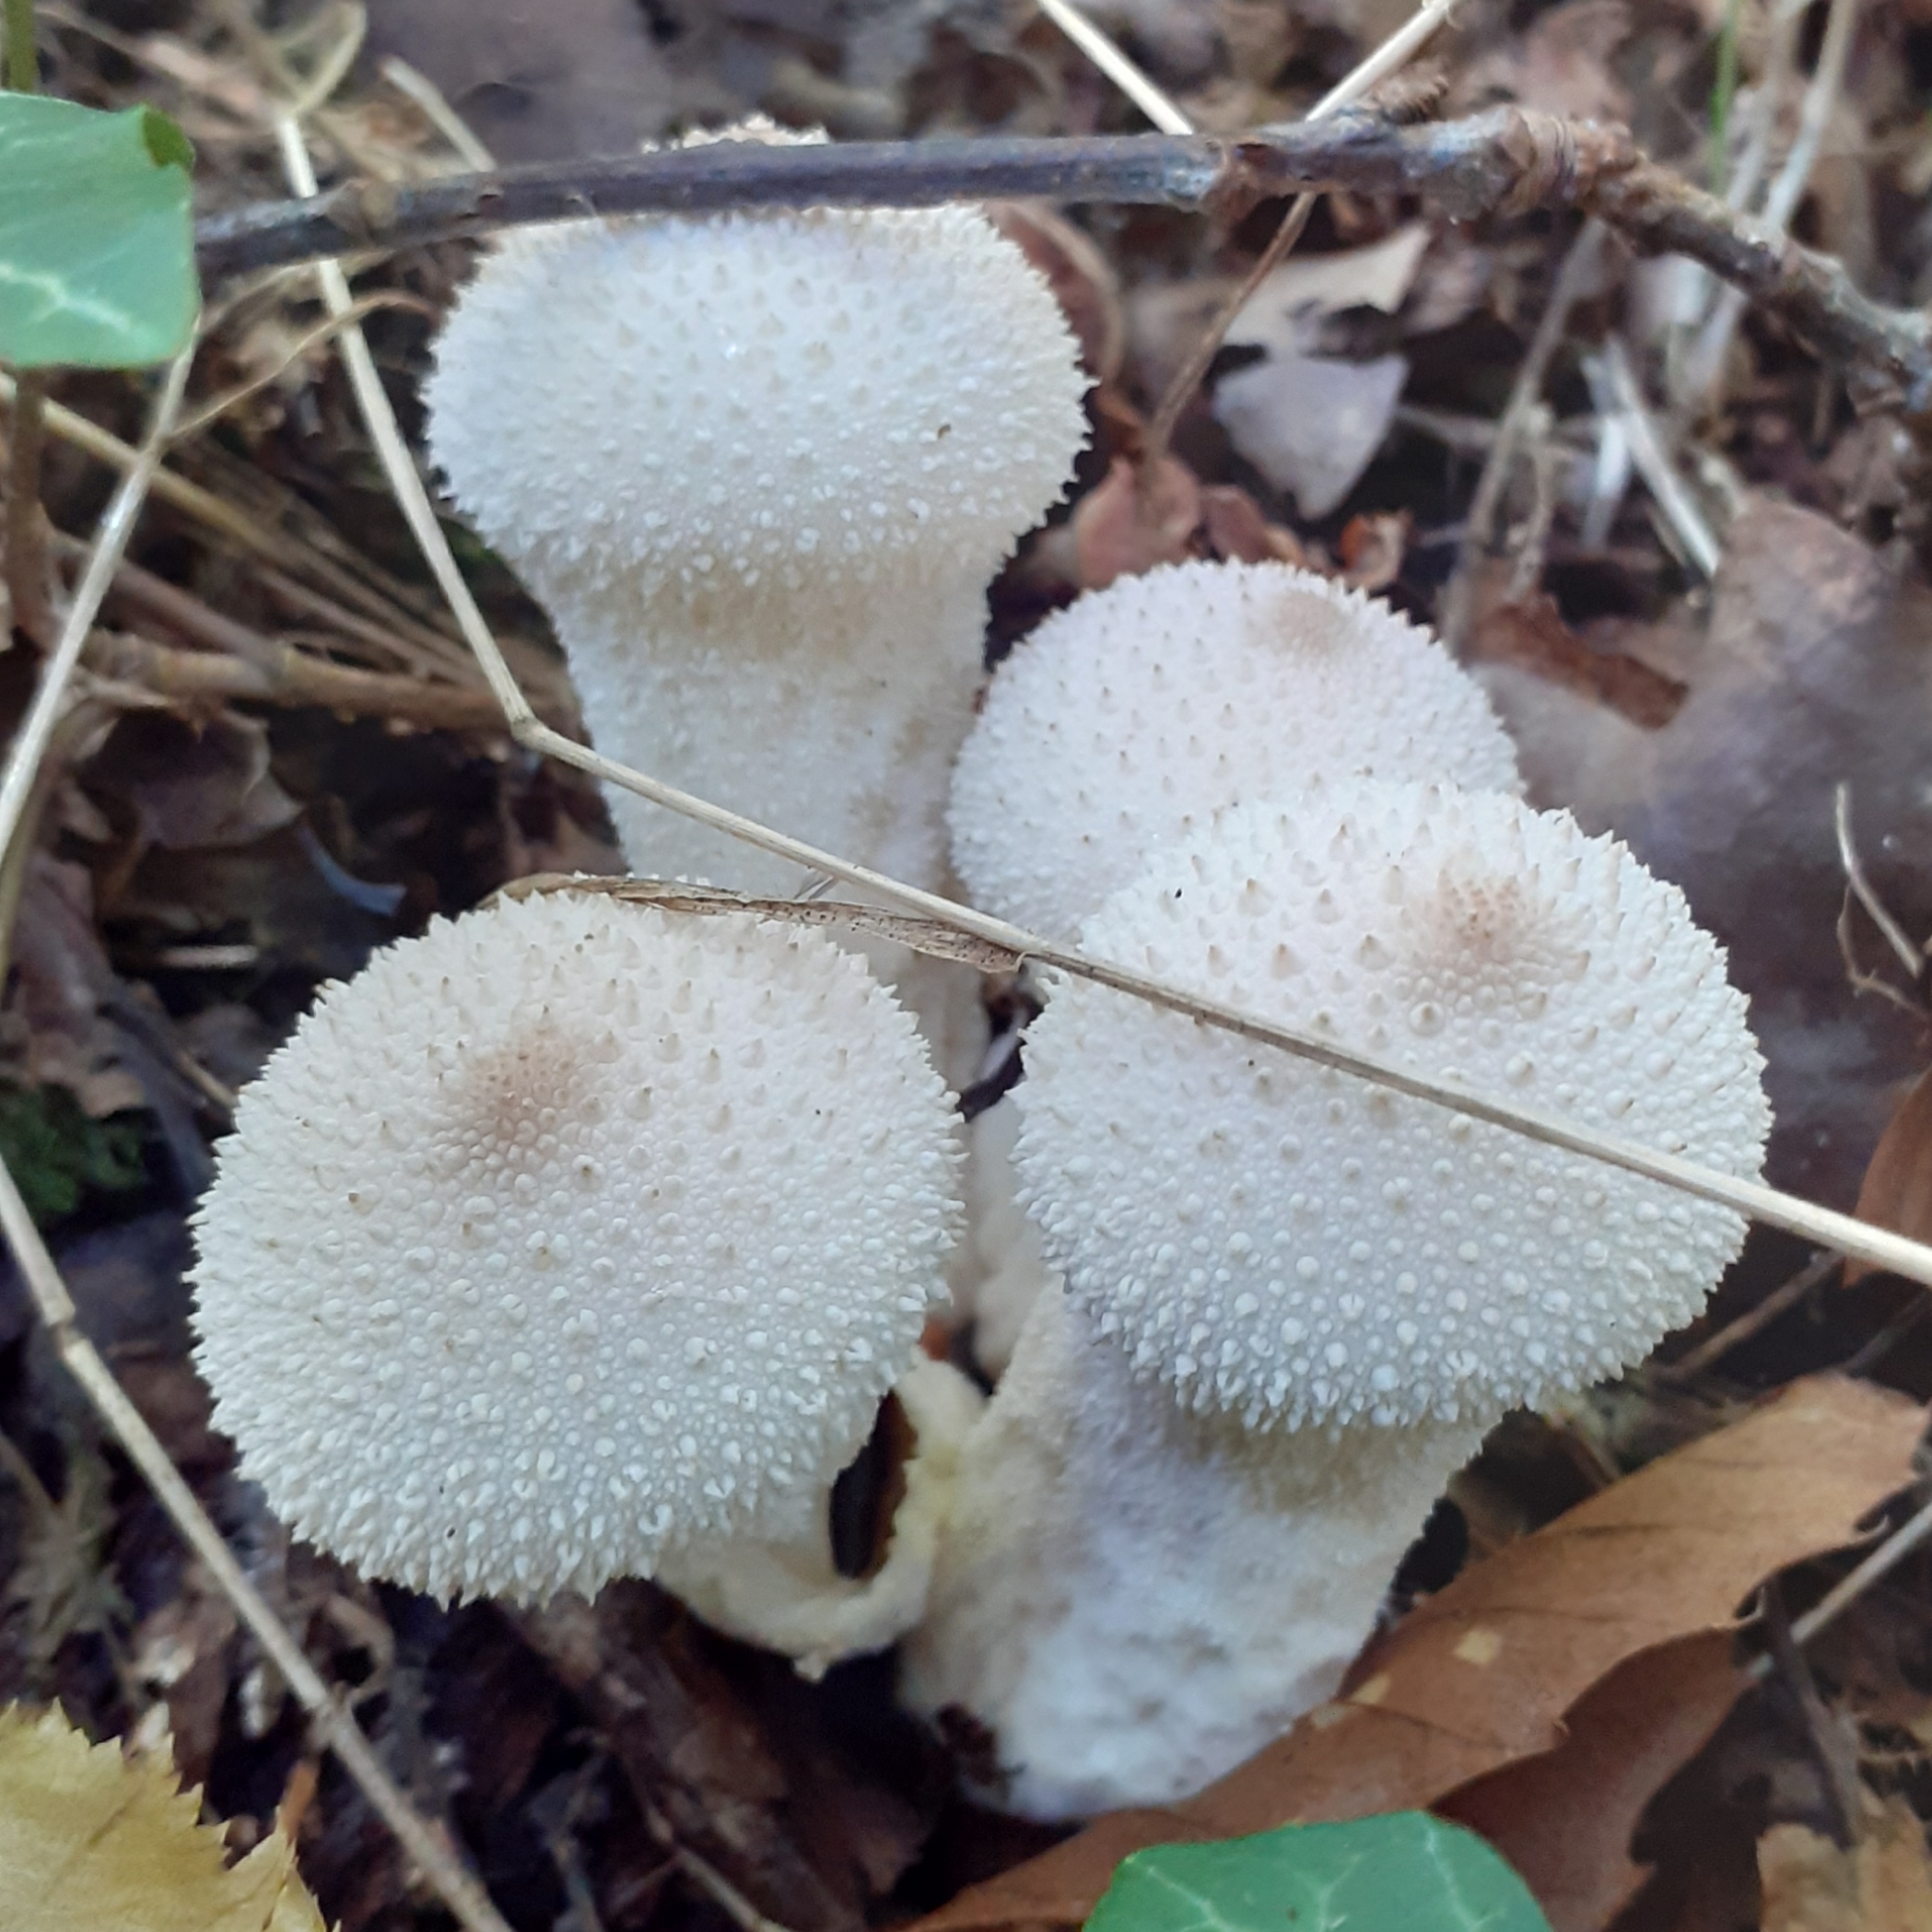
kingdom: Fungi
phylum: Basidiomycota
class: Agaricomycetes
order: Agaricales
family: Lycoperdaceae
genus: Lycoperdon
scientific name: Lycoperdon perlatum
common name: Common puffball
